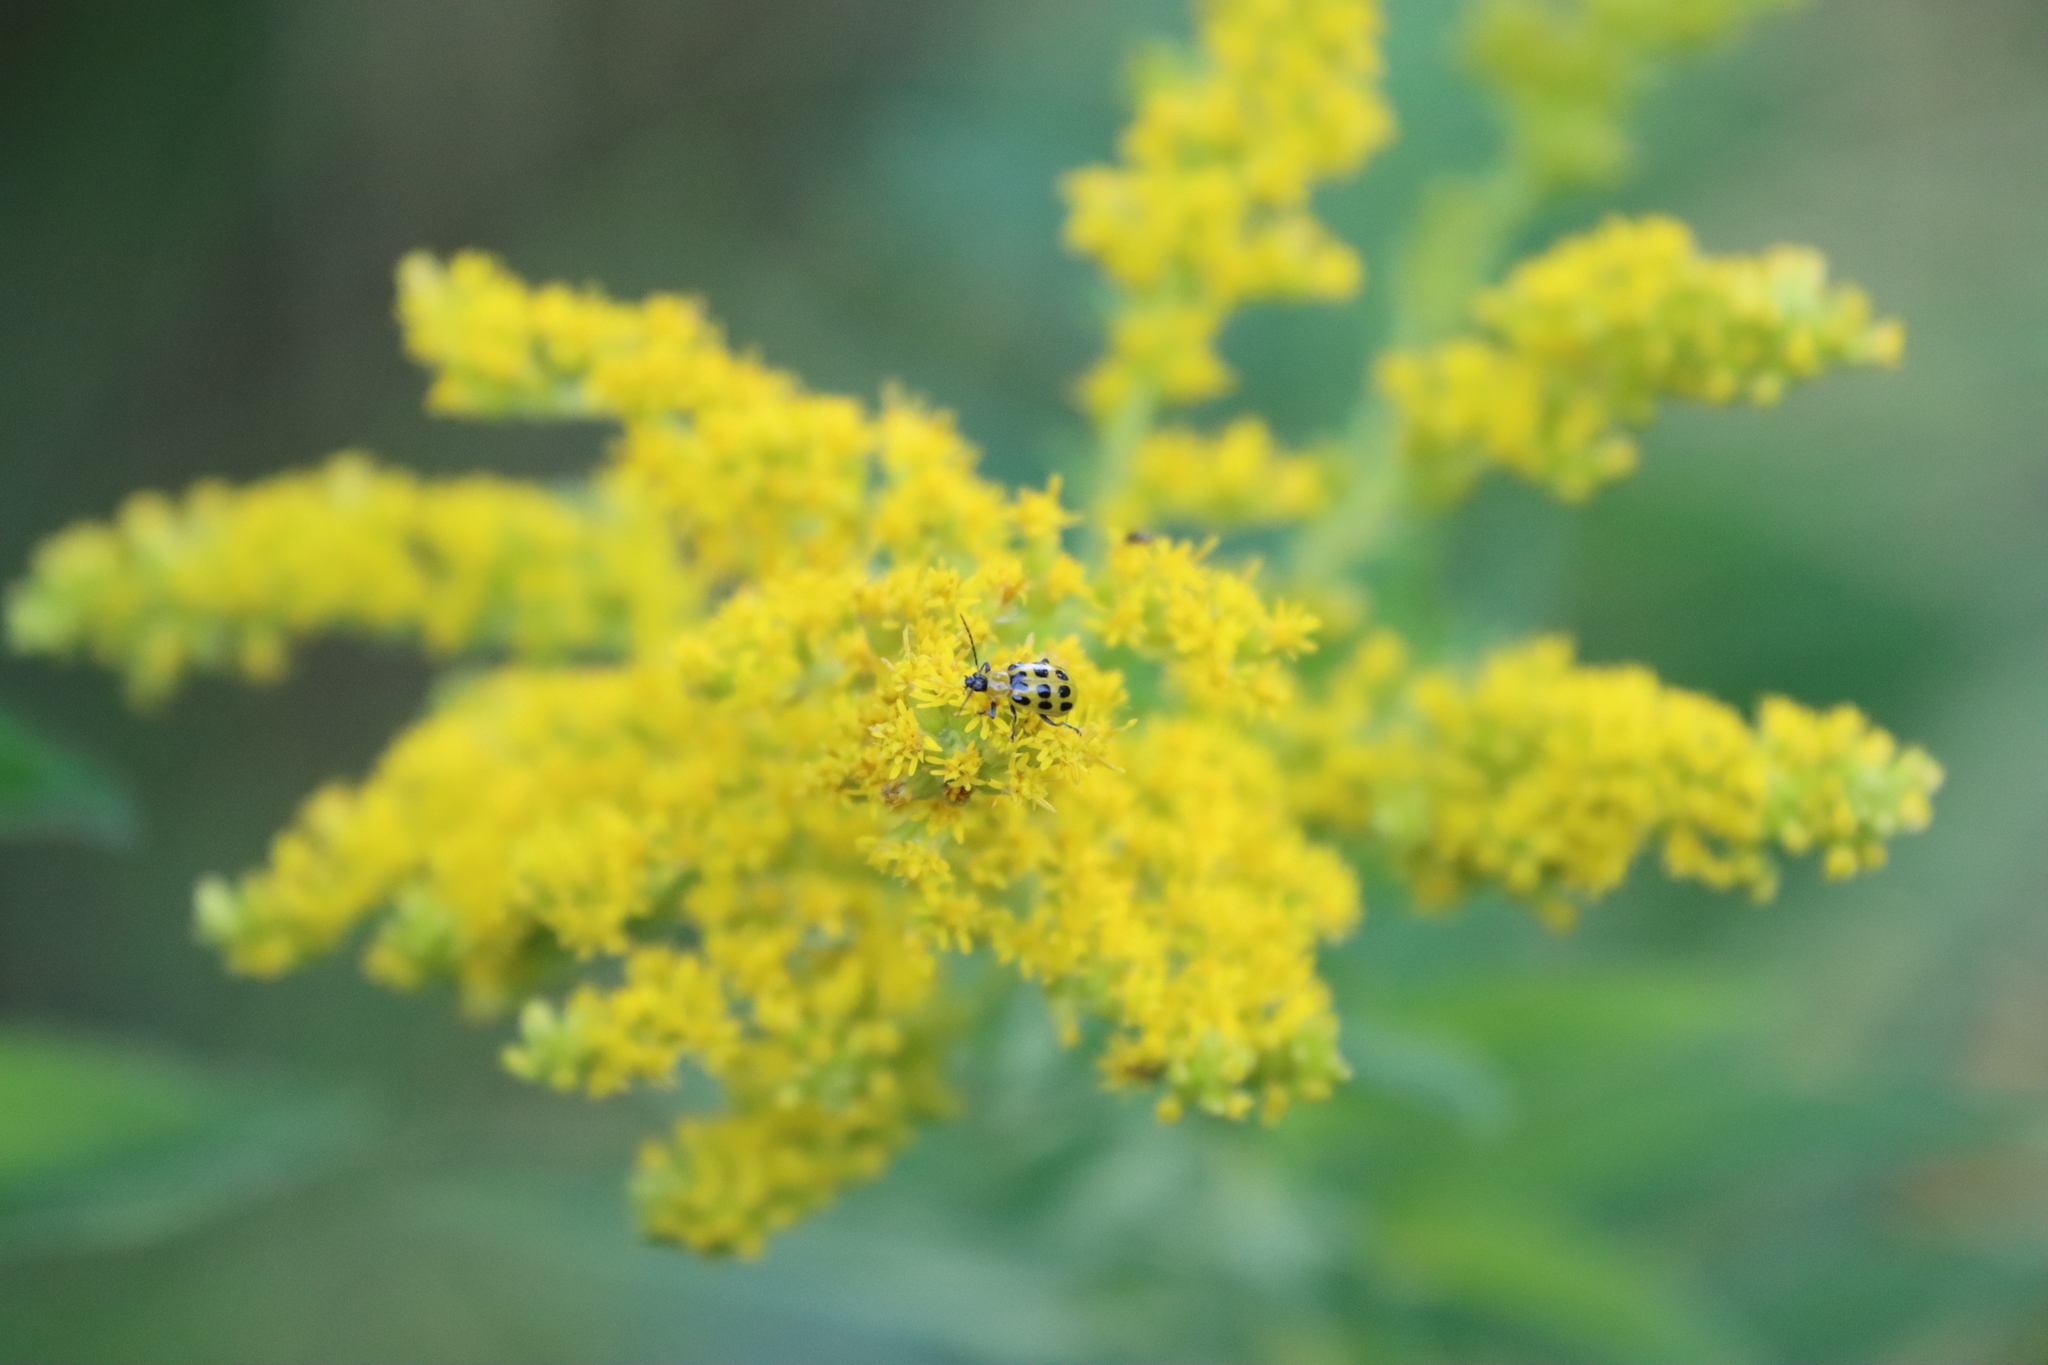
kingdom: Animalia
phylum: Arthropoda
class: Insecta
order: Coleoptera
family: Chrysomelidae
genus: Diabrotica
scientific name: Diabrotica undecimpunctata
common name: Spotted cucumber beetle
